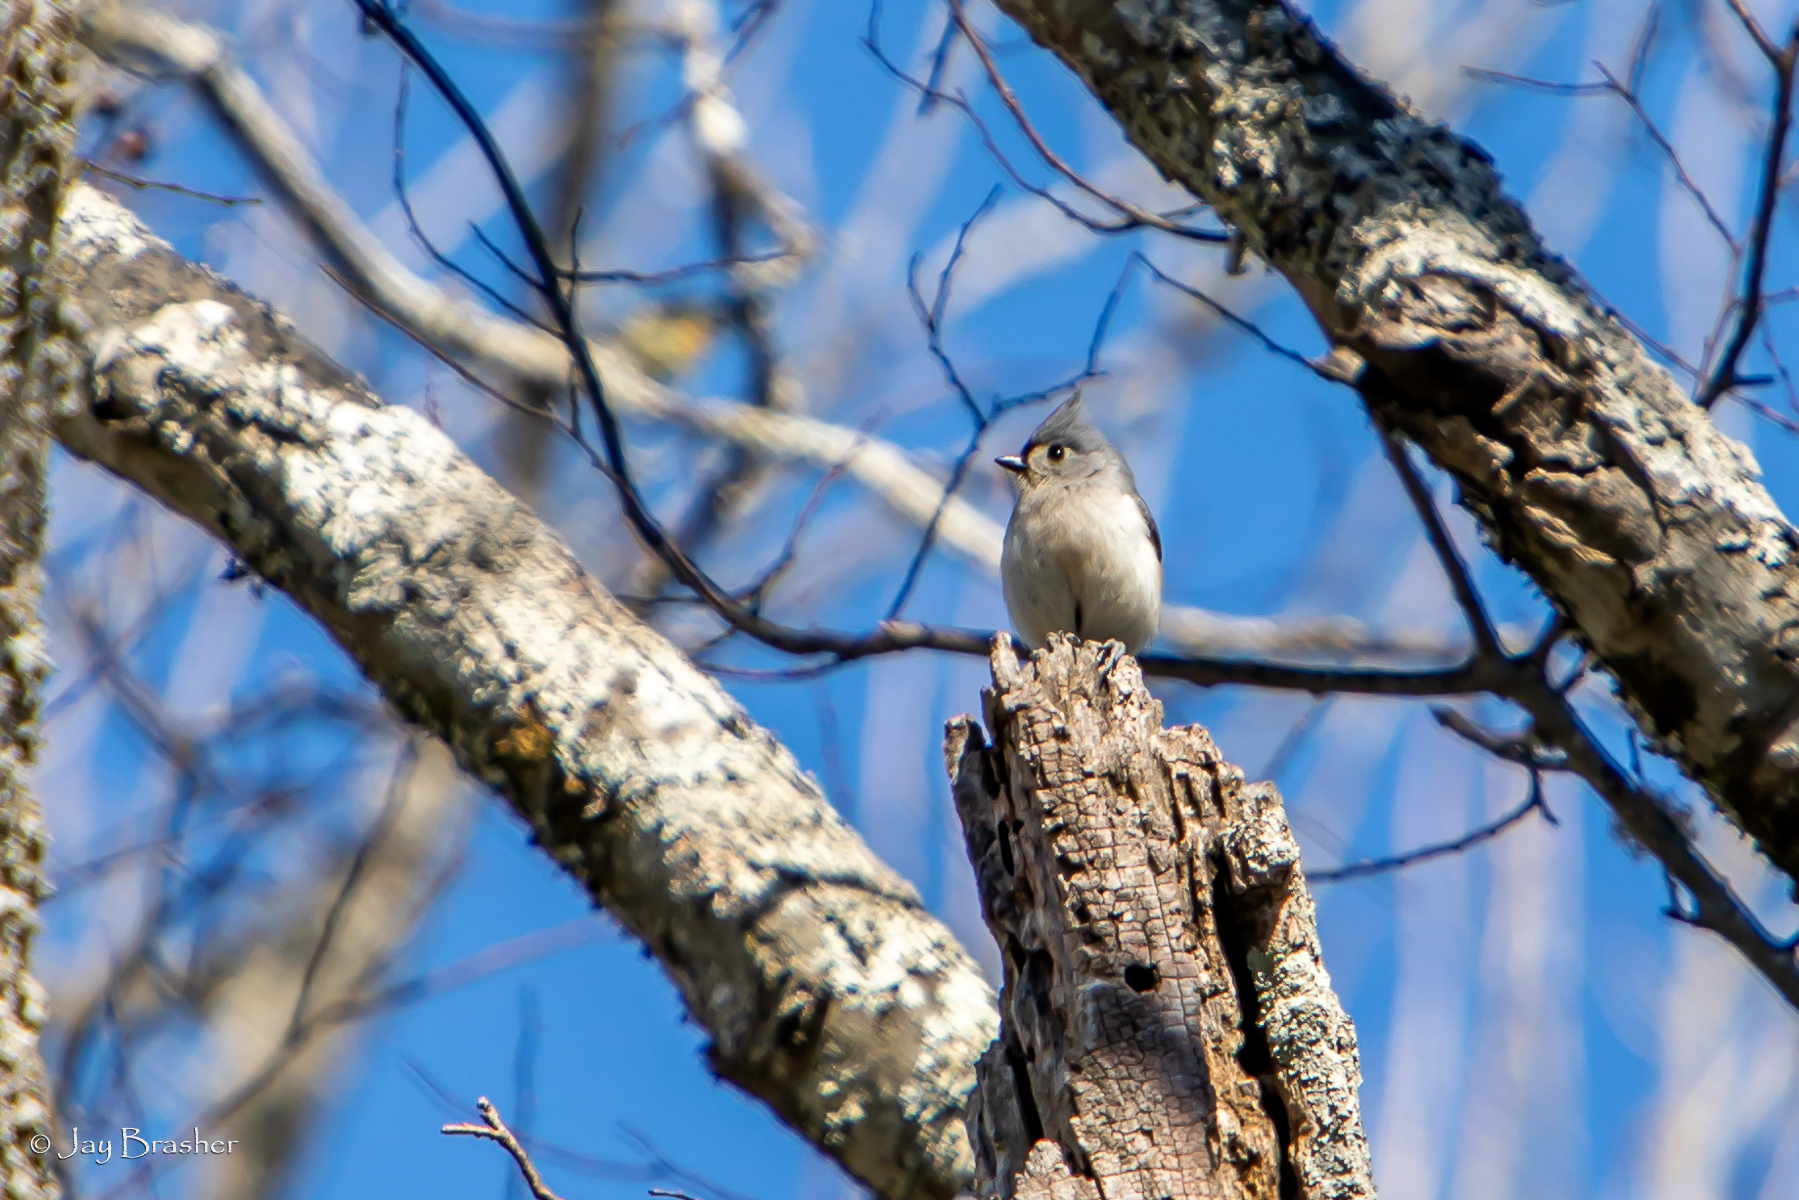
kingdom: Animalia
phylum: Chordata
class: Aves
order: Passeriformes
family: Paridae
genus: Baeolophus
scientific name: Baeolophus bicolor
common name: Tufted titmouse
